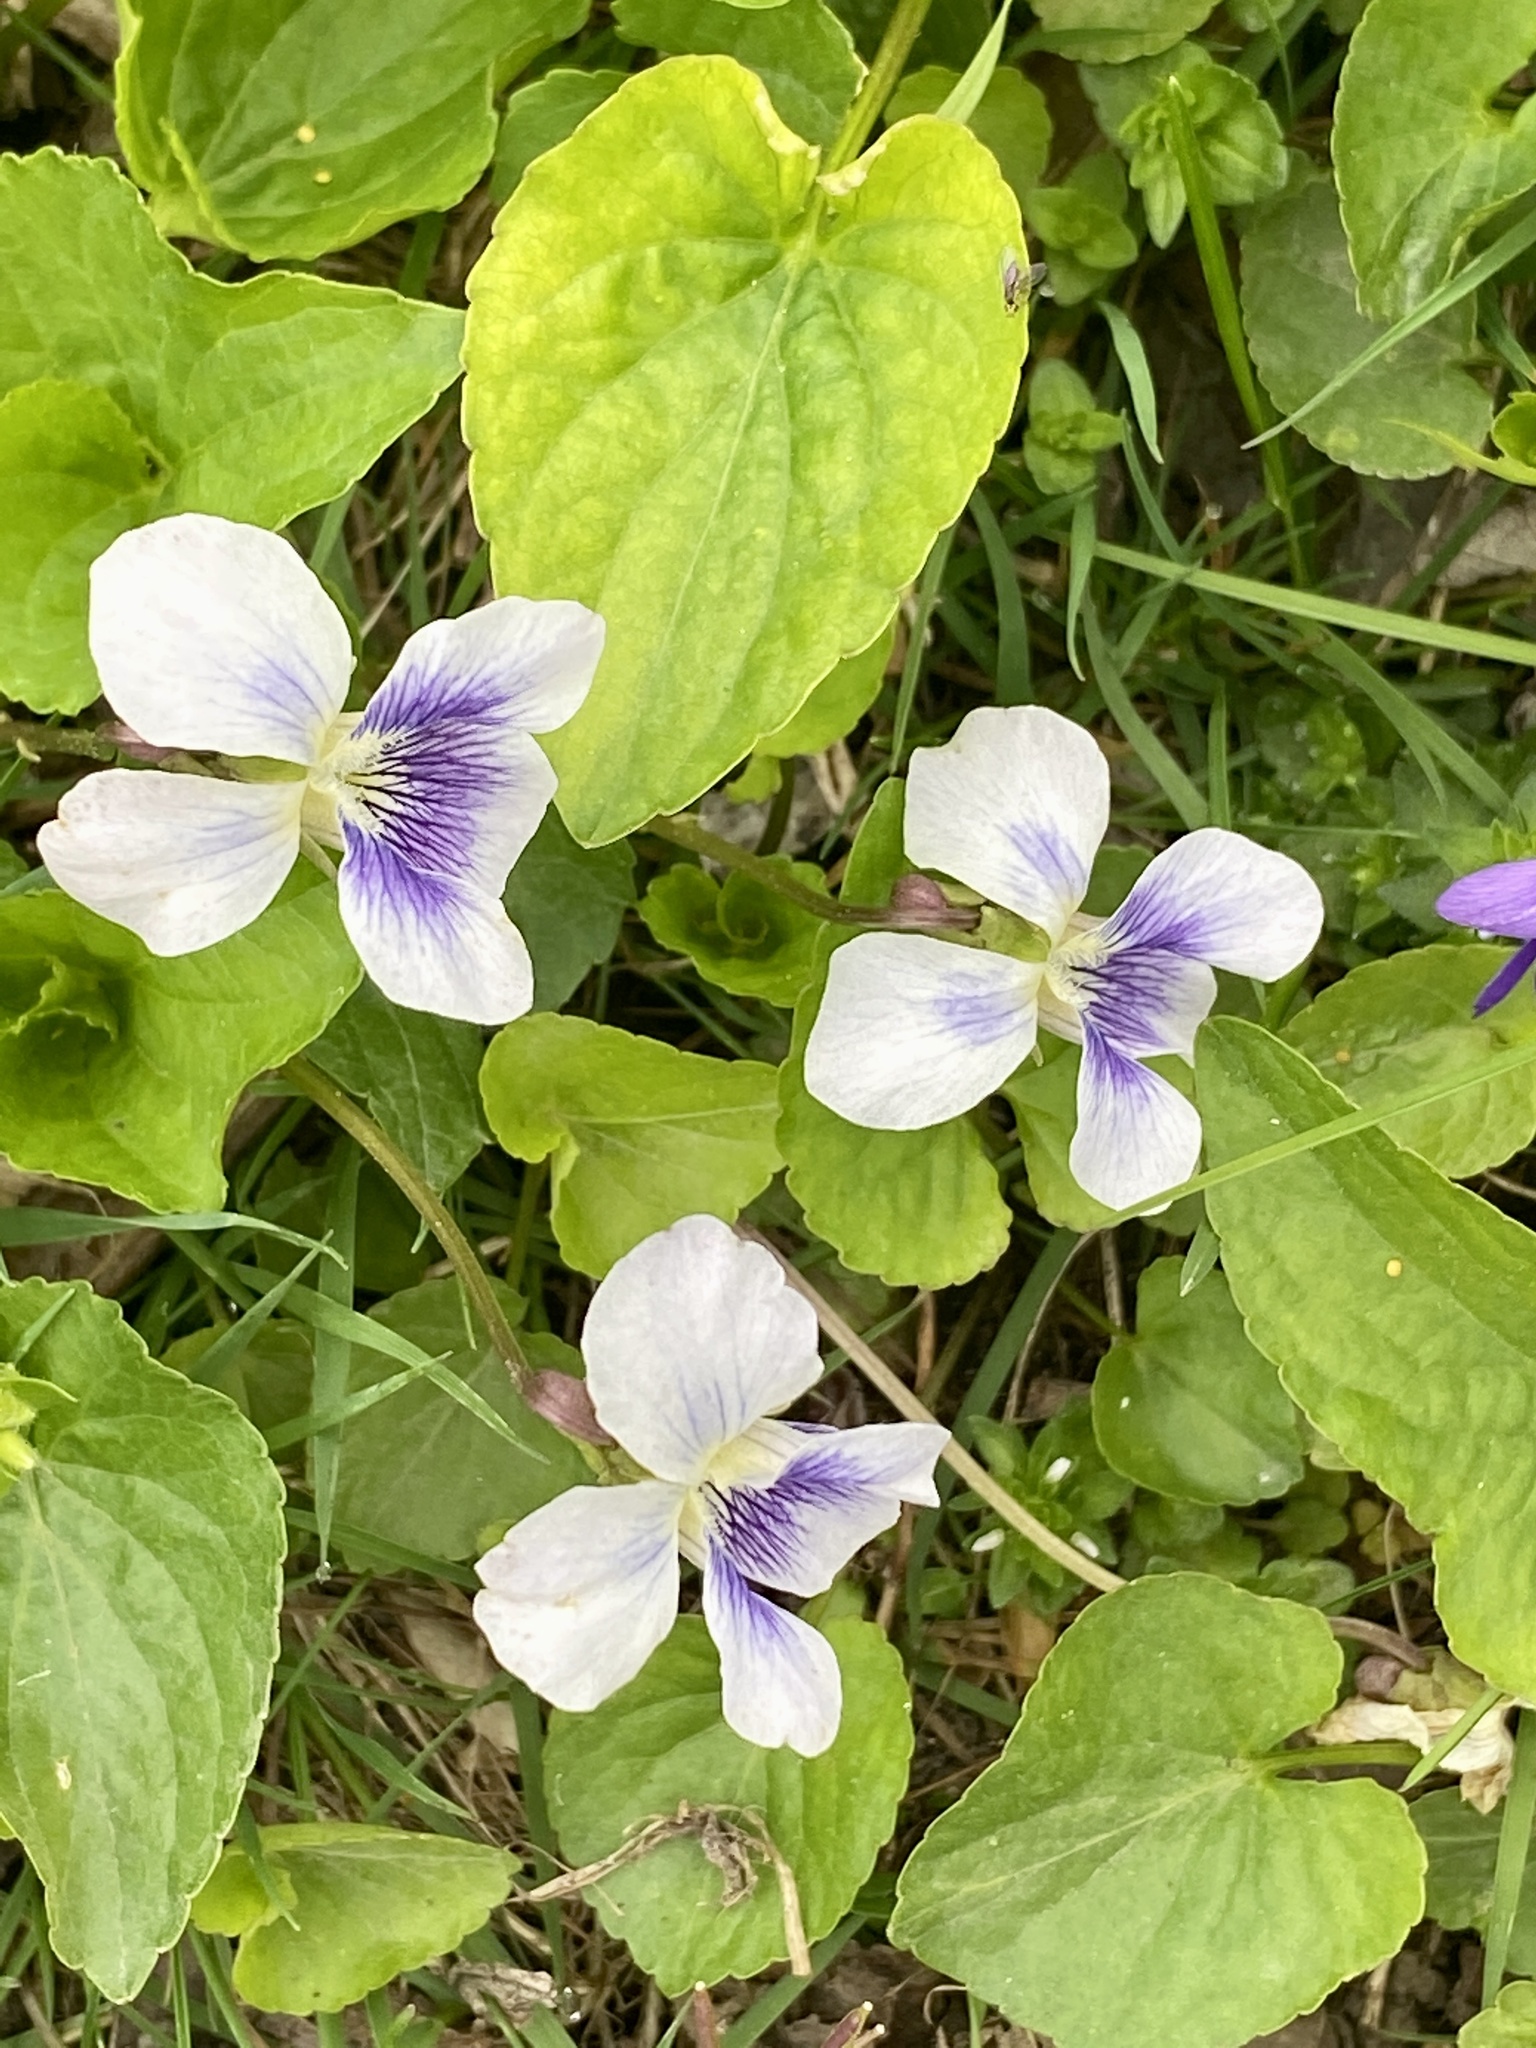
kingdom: Plantae
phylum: Tracheophyta
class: Magnoliopsida
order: Malpighiales
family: Violaceae
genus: Viola
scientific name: Viola sororia
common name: Dooryard violet
